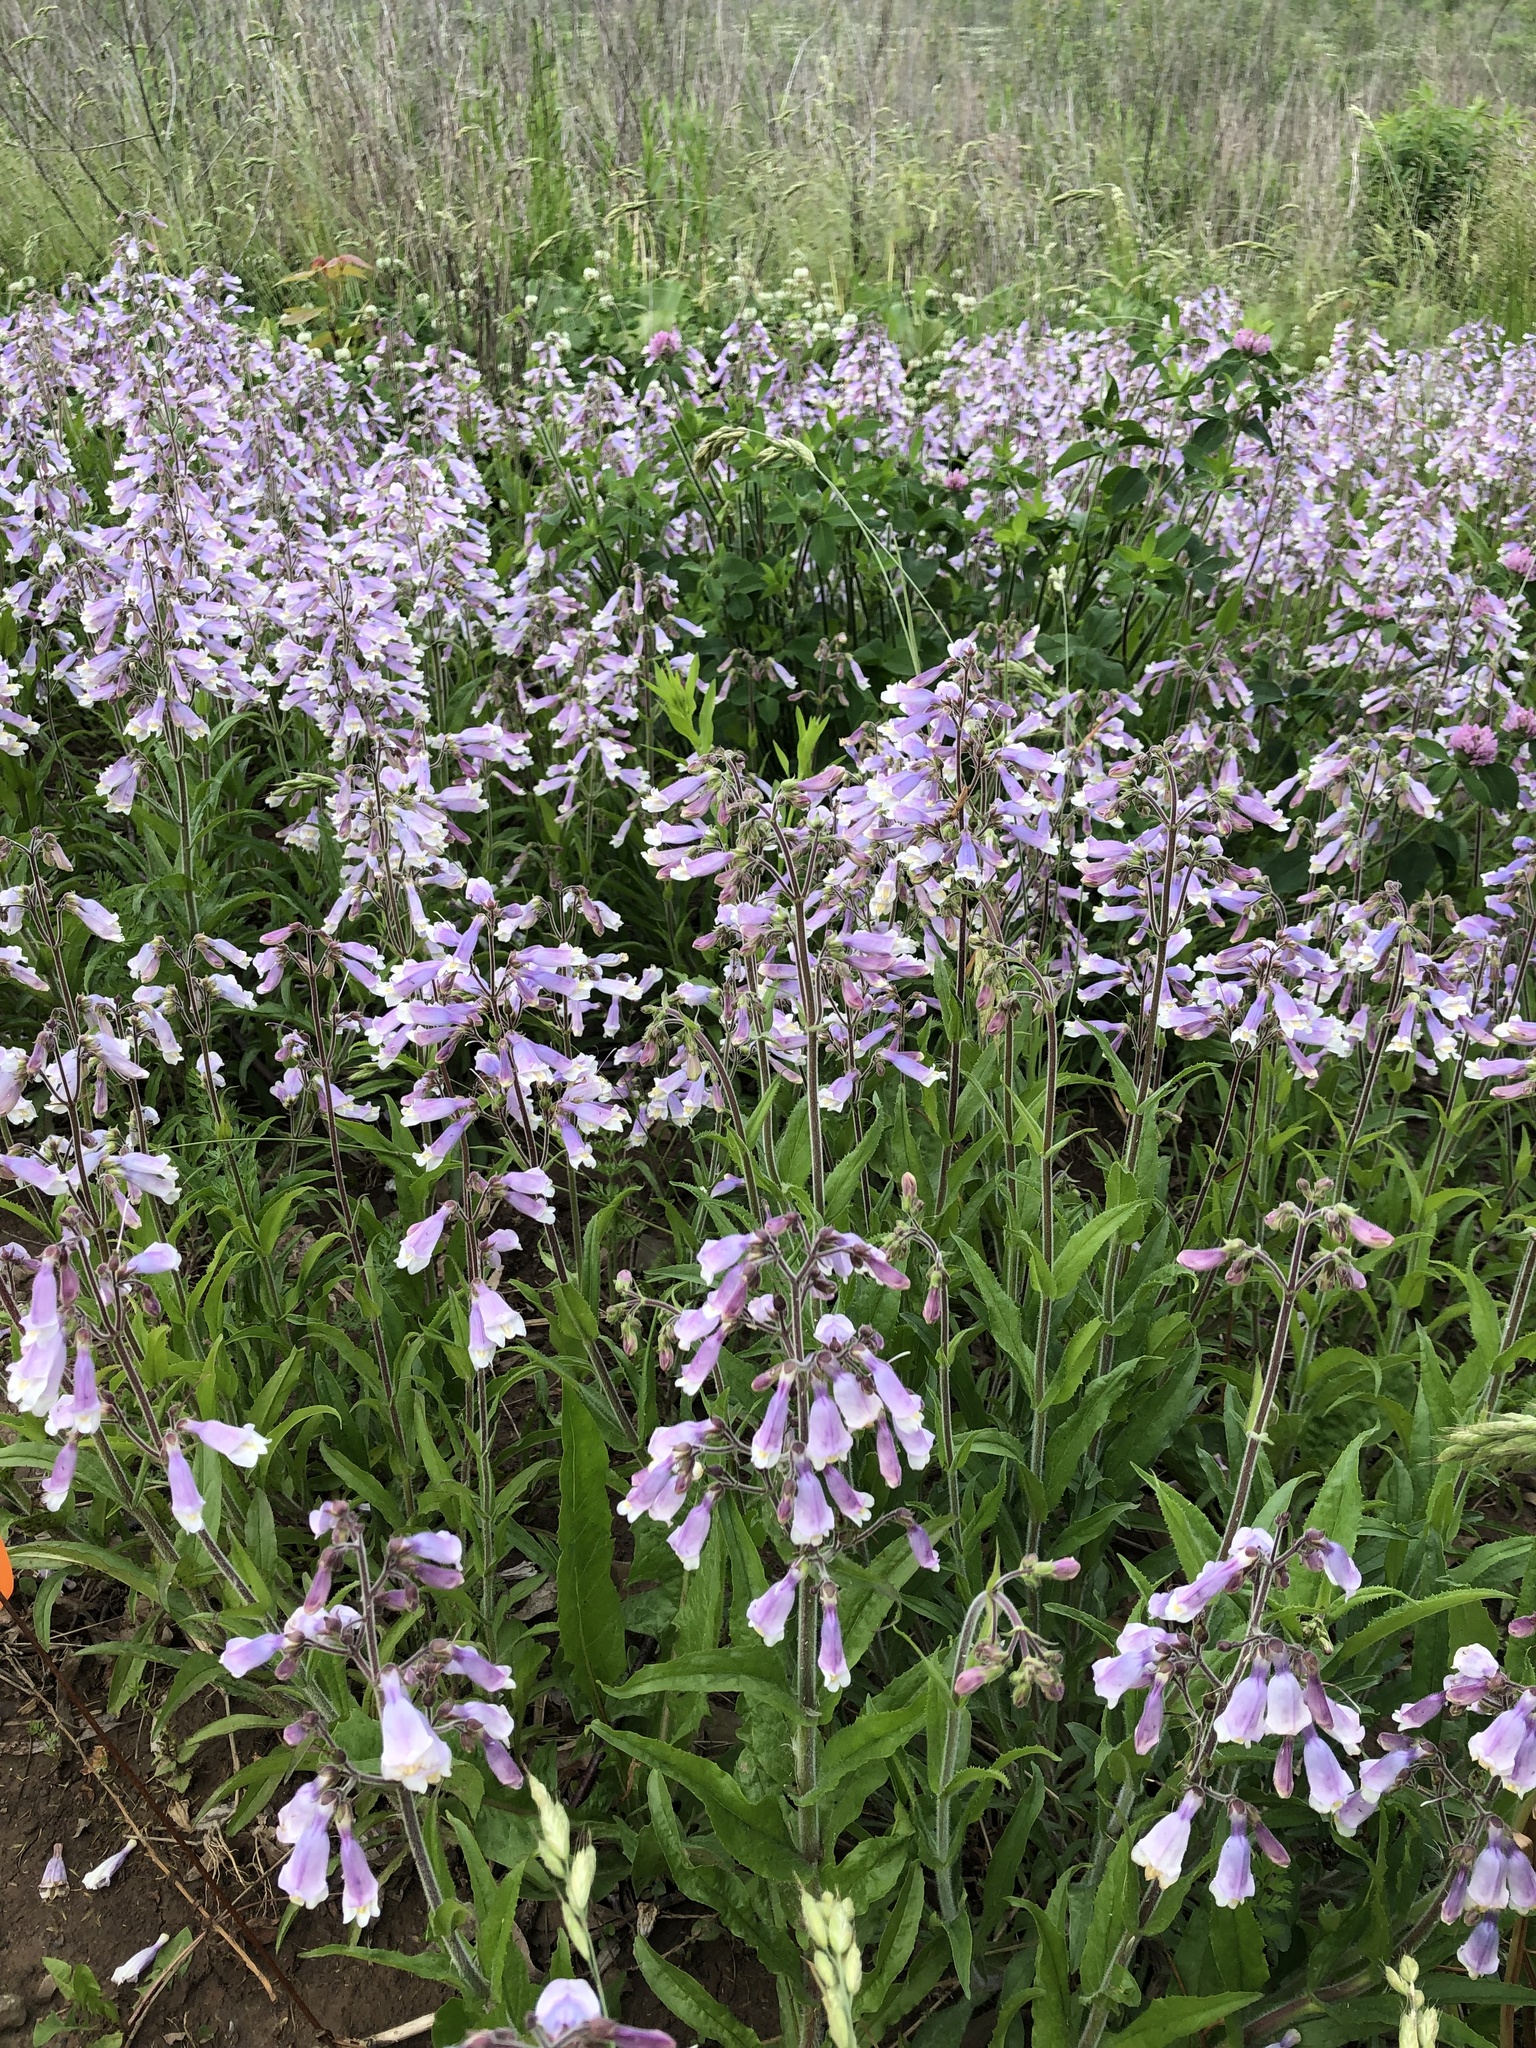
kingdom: Plantae
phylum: Tracheophyta
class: Magnoliopsida
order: Lamiales
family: Plantaginaceae
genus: Penstemon
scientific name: Penstemon hirsutus
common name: Hairy beardtongue
